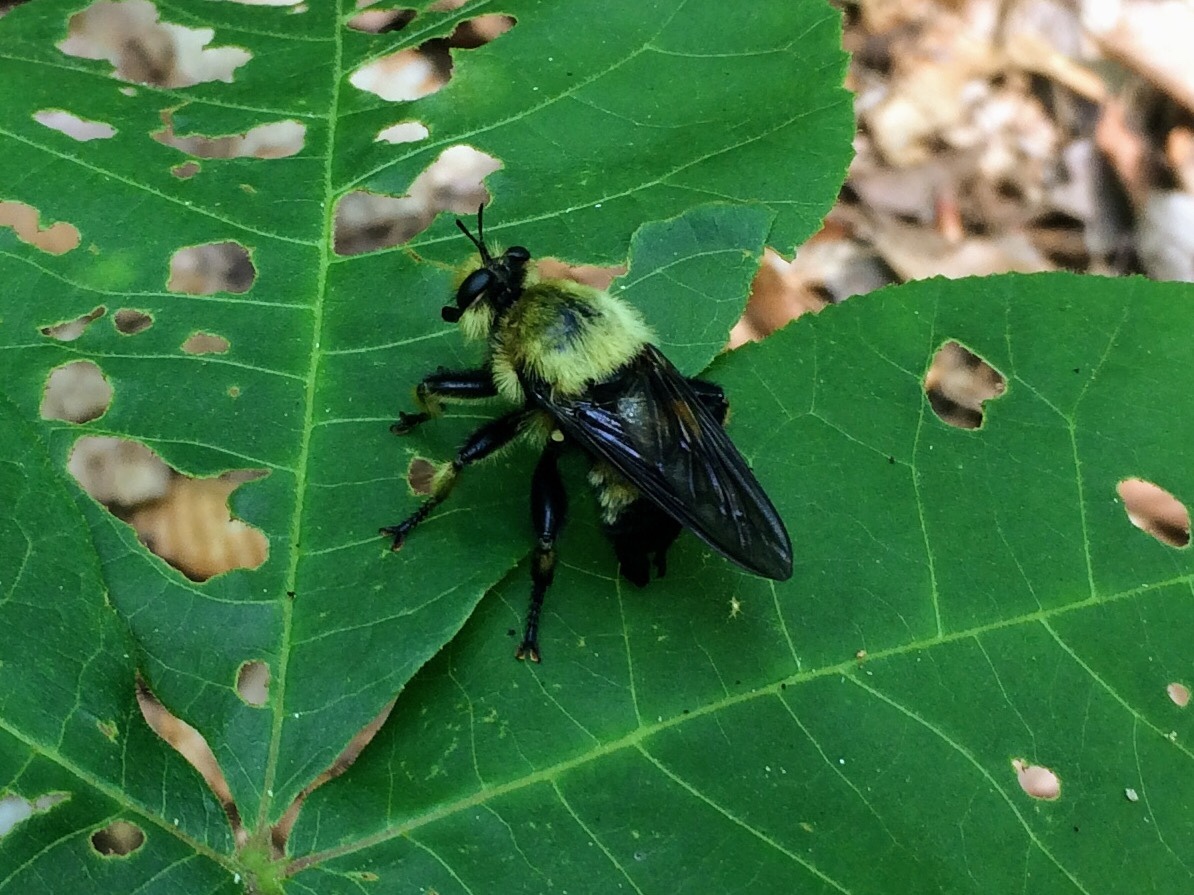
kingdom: Animalia
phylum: Arthropoda
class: Insecta
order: Diptera
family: Asilidae
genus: Laphria
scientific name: Laphria grossa
